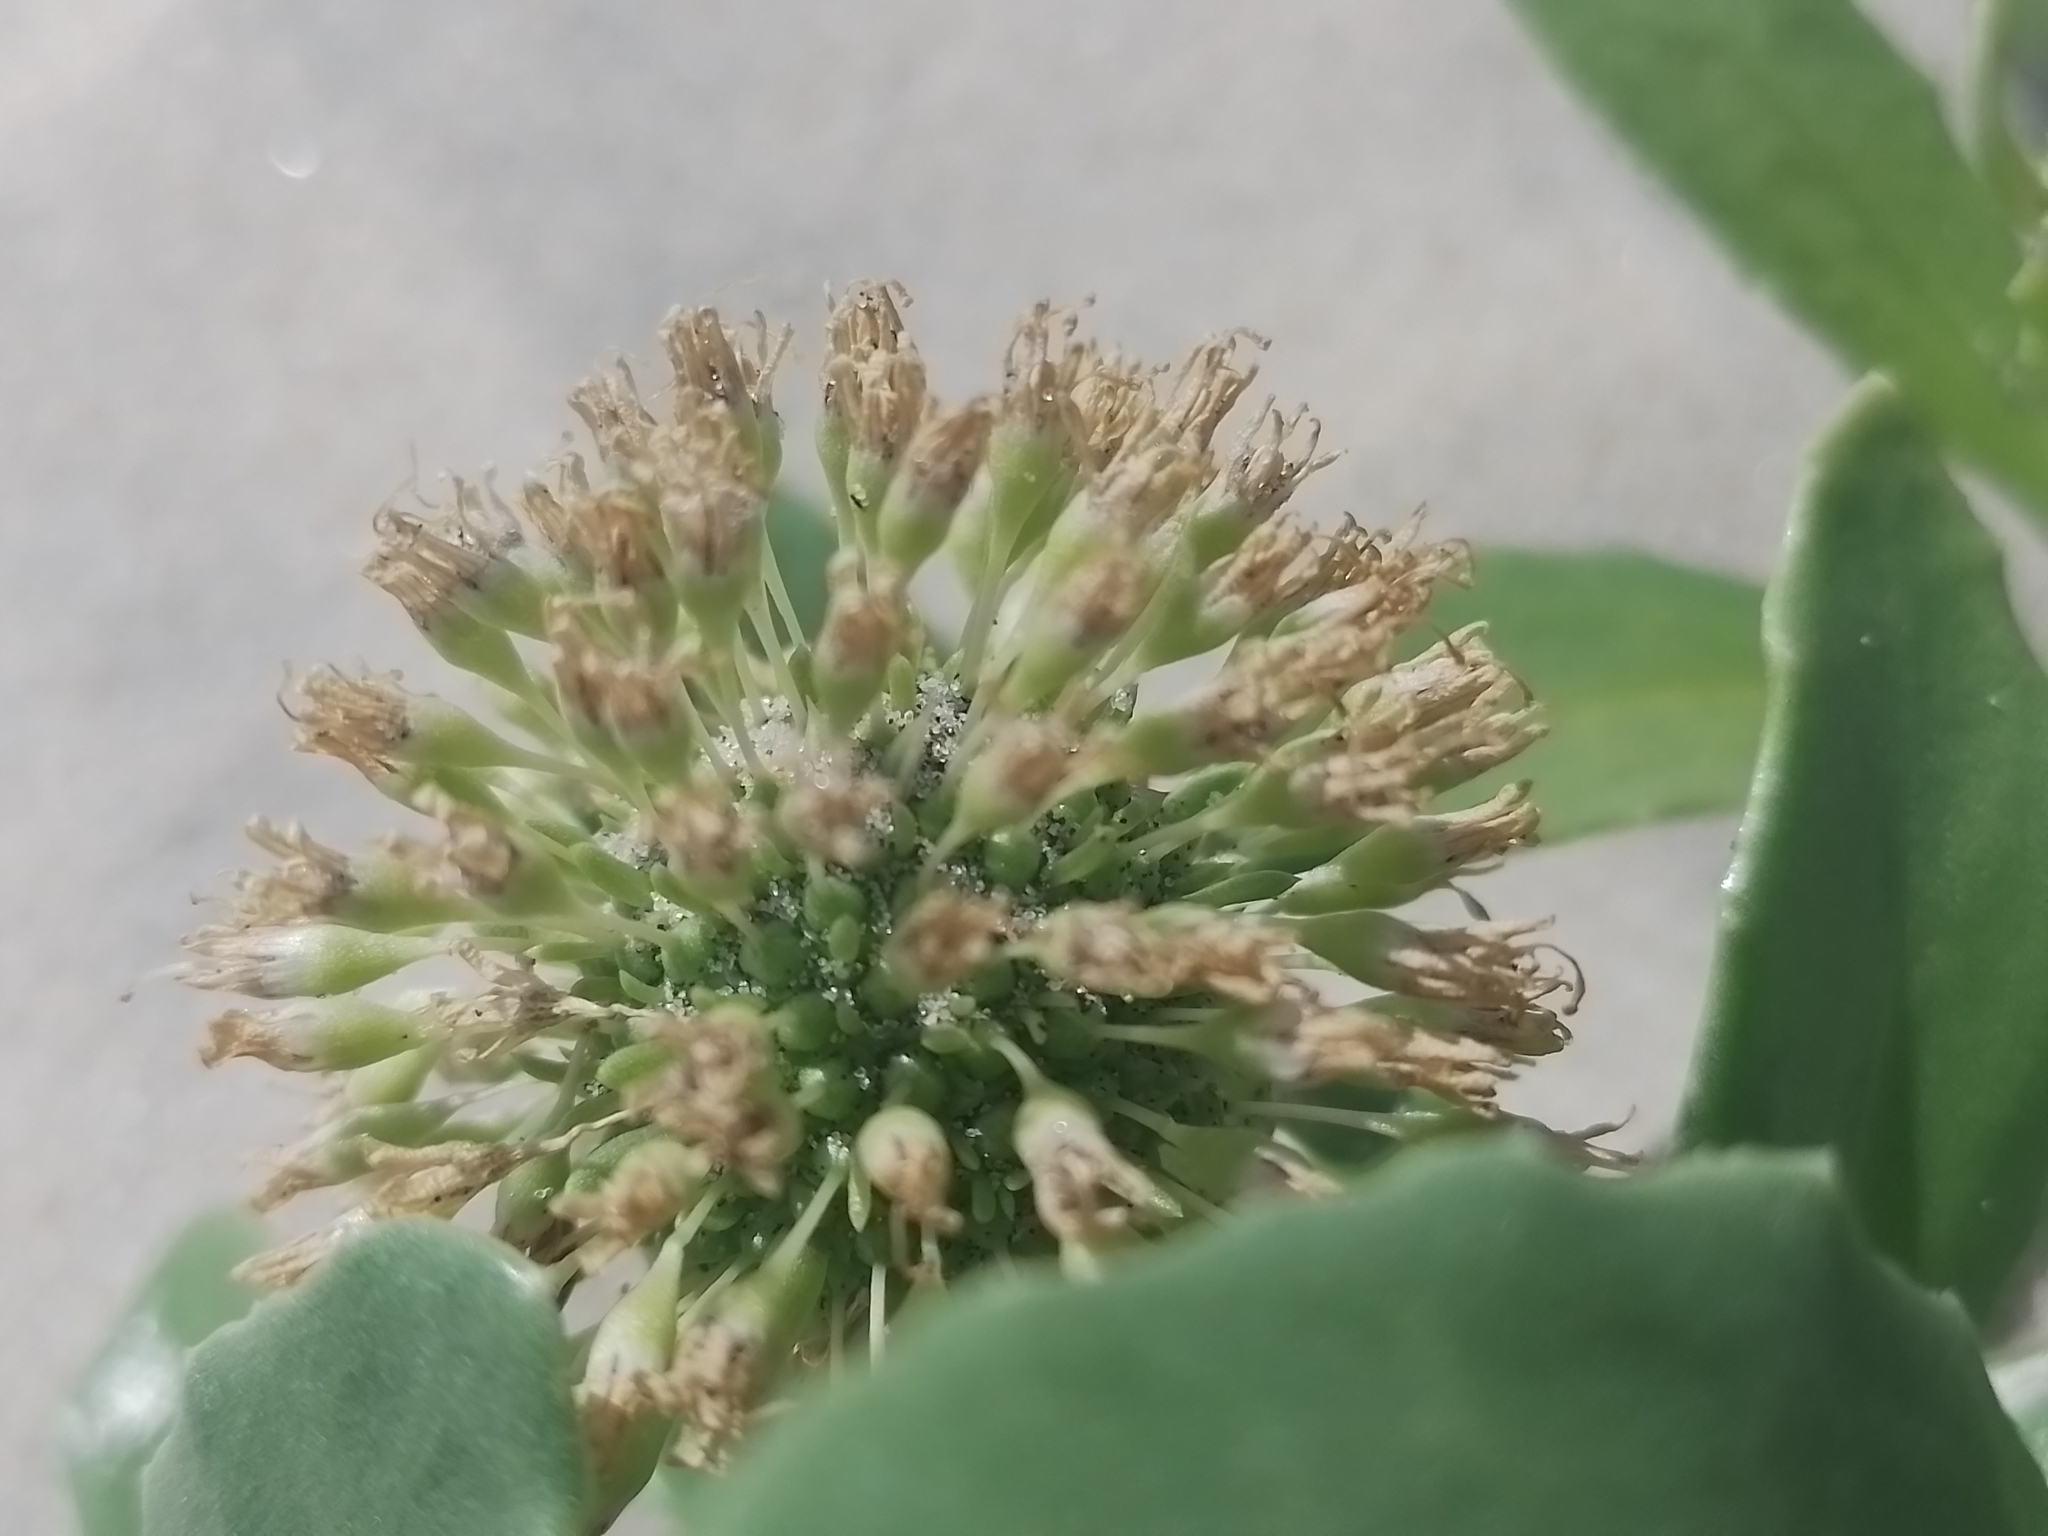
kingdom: Plantae
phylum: Tracheophyta
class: Magnoliopsida
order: Asterales
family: Calyceraceae
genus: Calycera
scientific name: Calycera crassifolia
